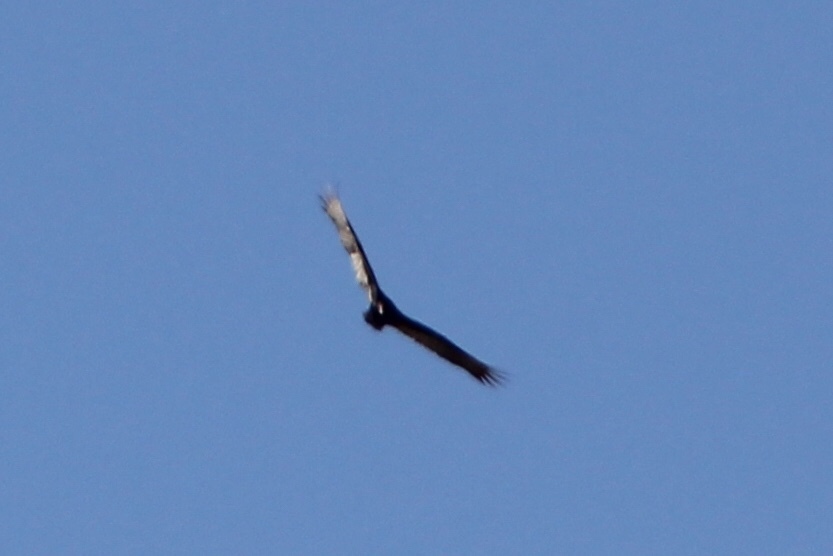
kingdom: Animalia
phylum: Chordata
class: Aves
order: Accipitriformes
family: Cathartidae
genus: Cathartes
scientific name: Cathartes aura
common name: Turkey vulture
